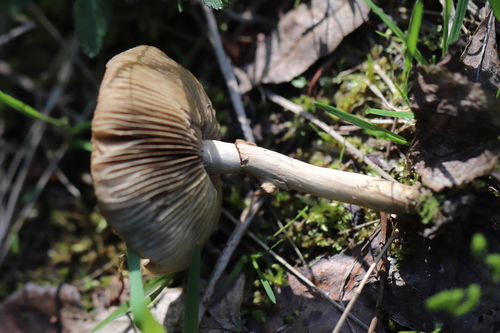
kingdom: Fungi
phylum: Basidiomycota
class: Agaricomycetes
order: Agaricales
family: Strophariaceae
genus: Agrocybe
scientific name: Agrocybe praecox
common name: Spring fieldcap
